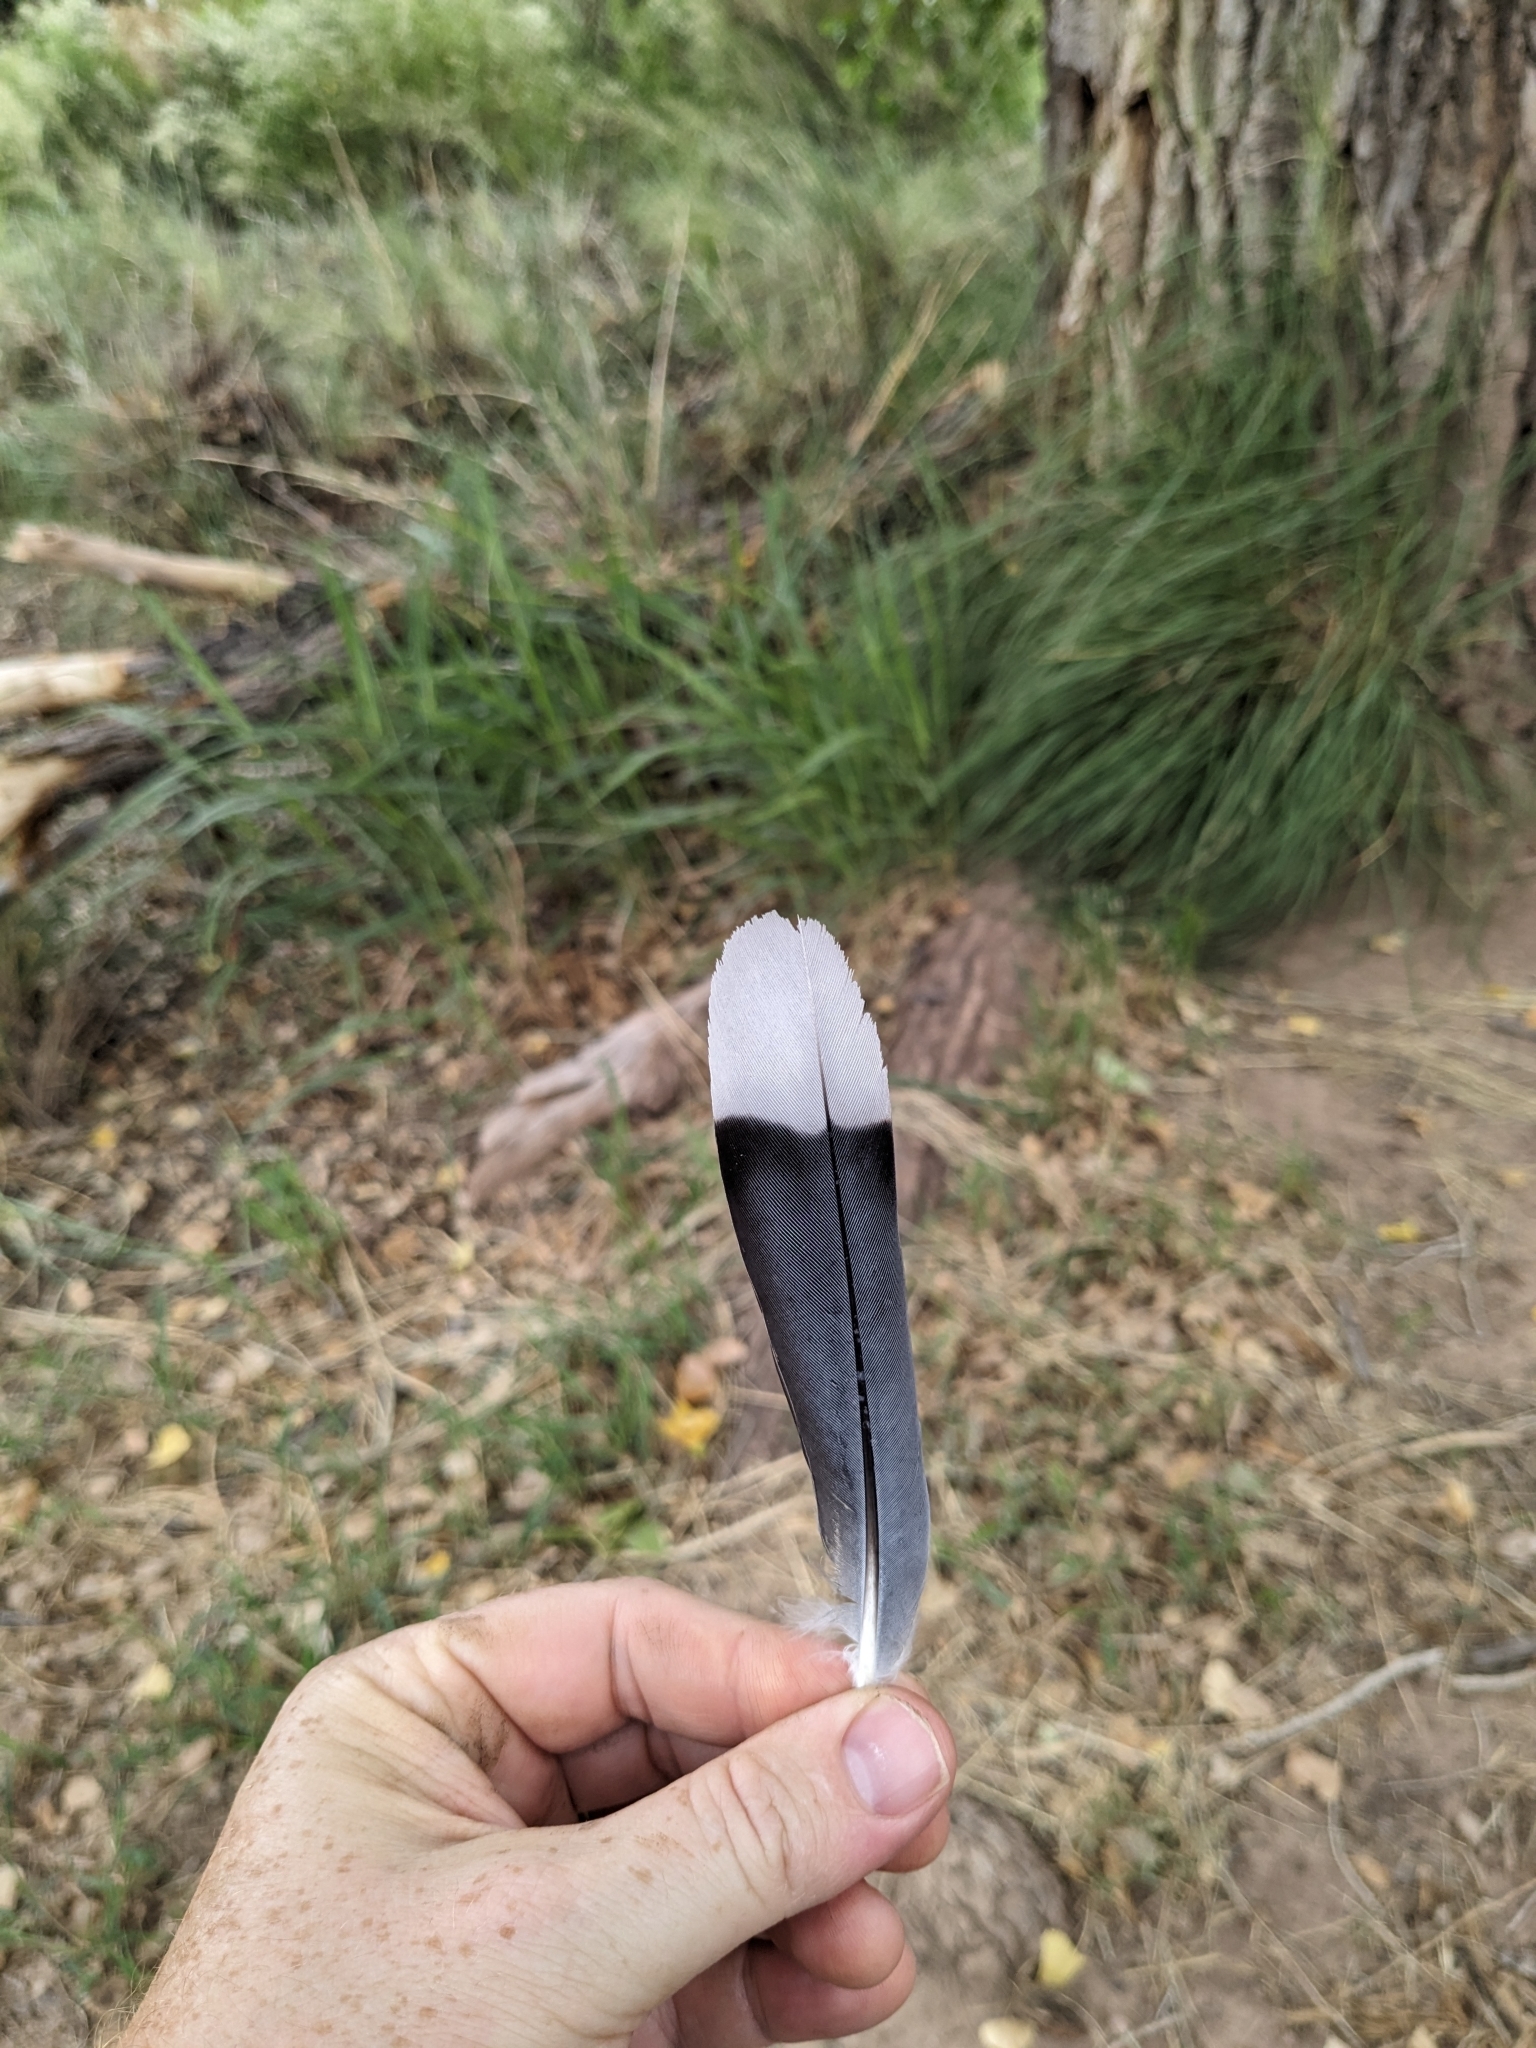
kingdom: Animalia
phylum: Chordata
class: Aves
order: Columbiformes
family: Columbidae
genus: Zenaida
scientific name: Zenaida asiatica
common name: White-winged dove
